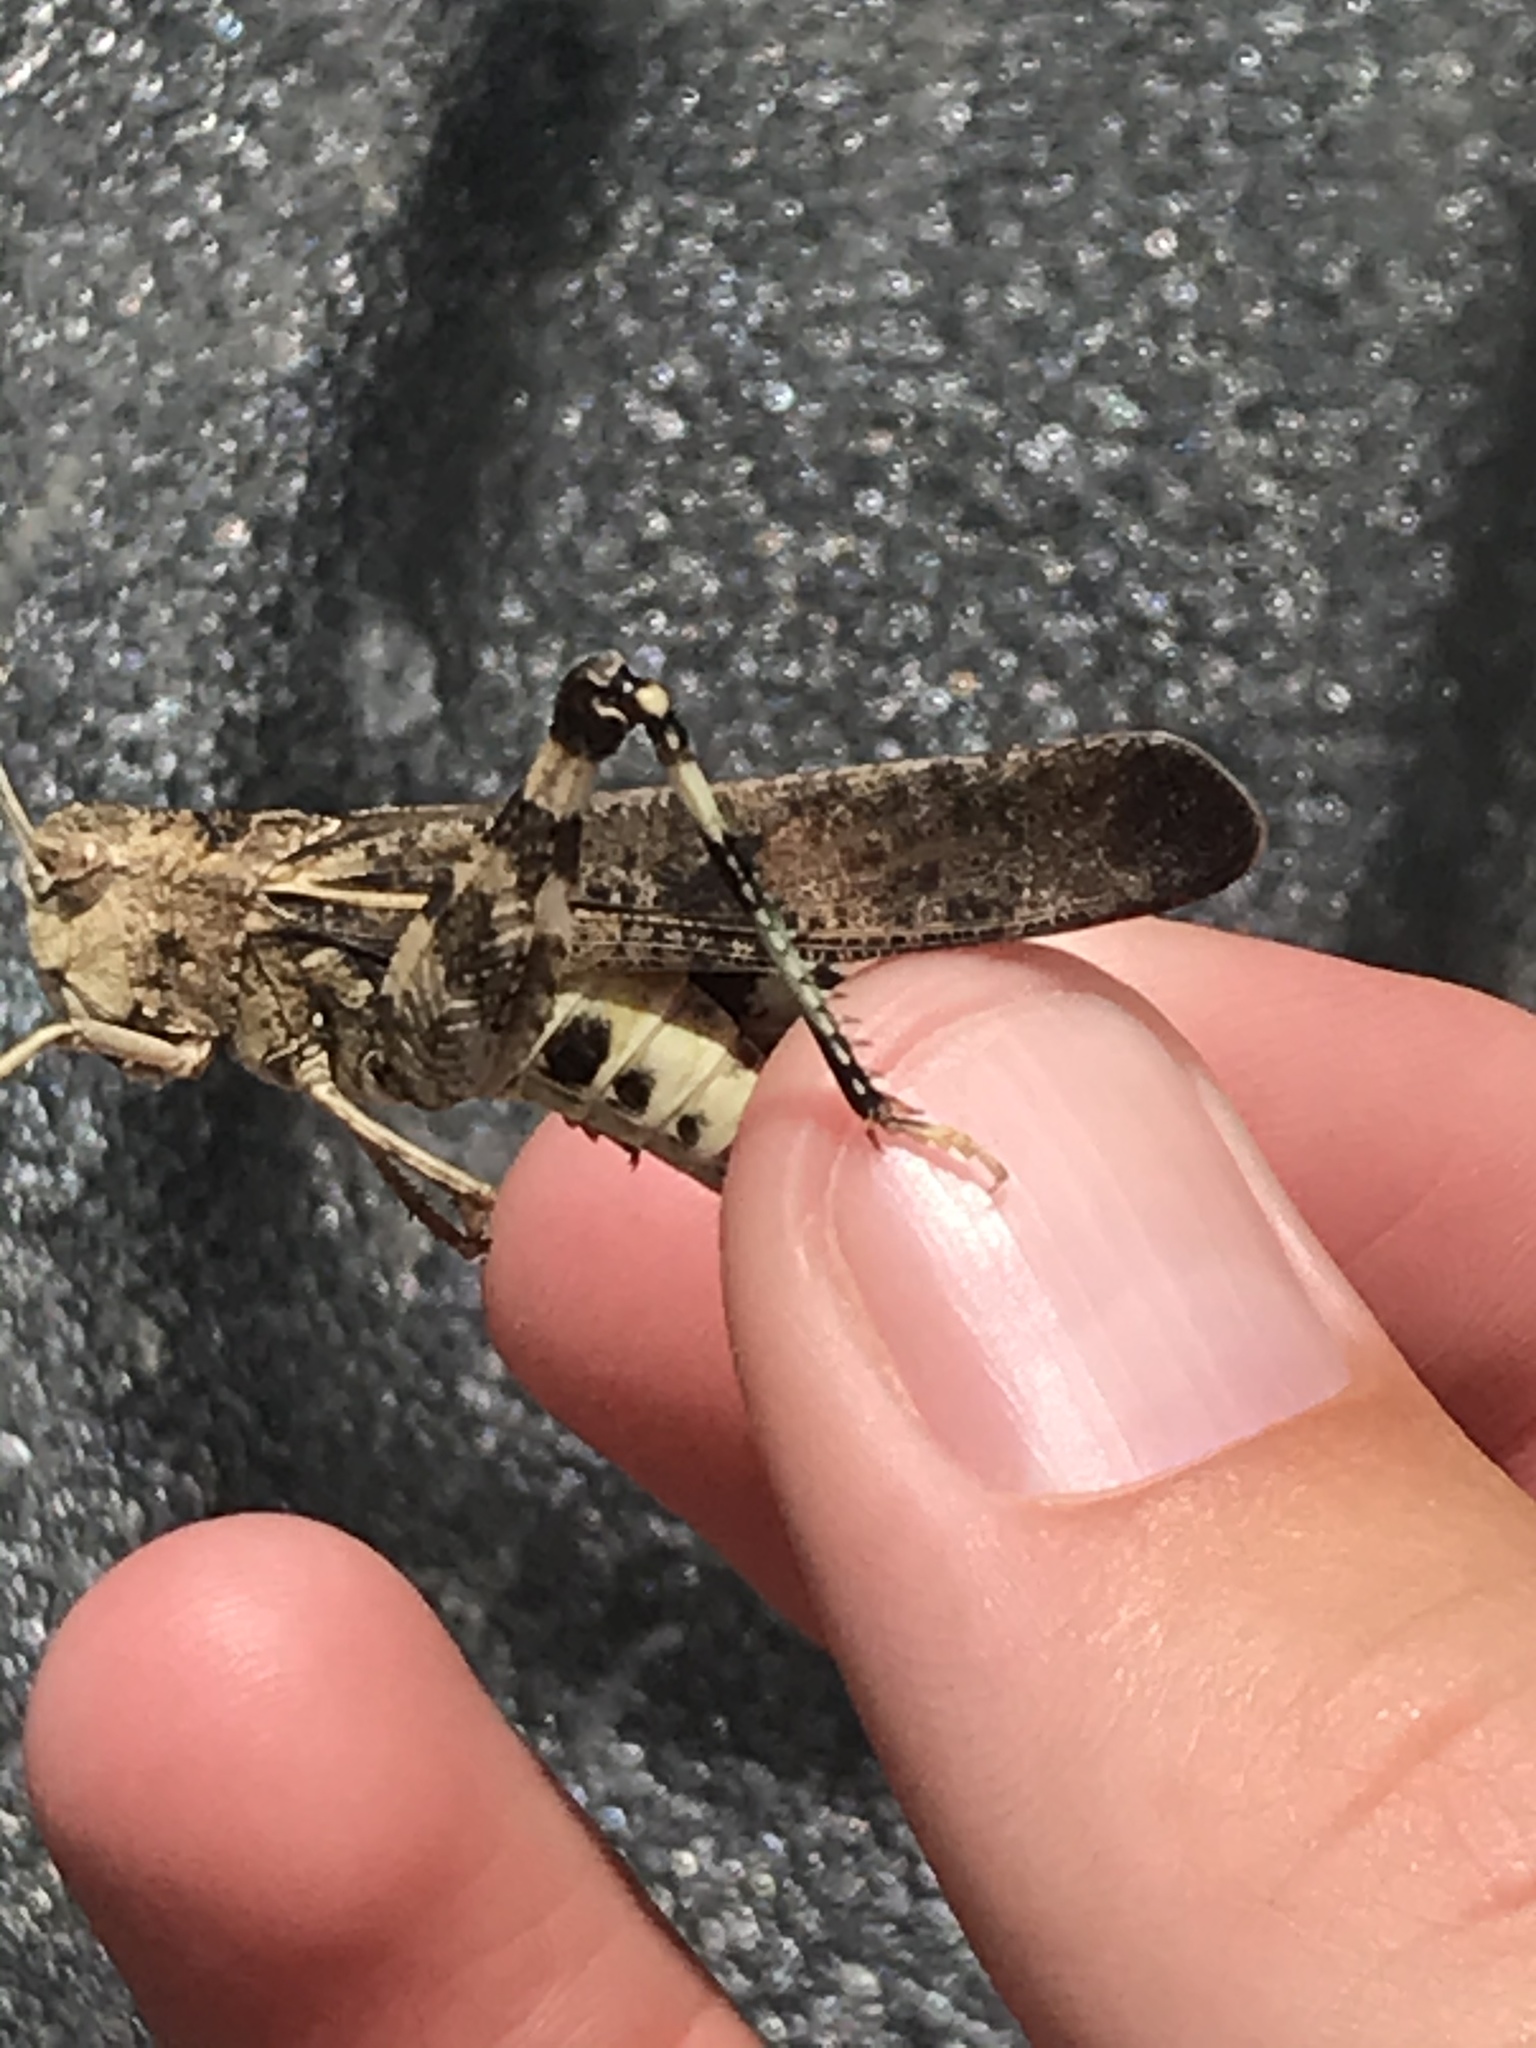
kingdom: Animalia
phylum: Arthropoda
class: Insecta
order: Orthoptera
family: Acrididae
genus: Arphia
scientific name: Arphia simplex
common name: Plains yellow-winged grasshopper
